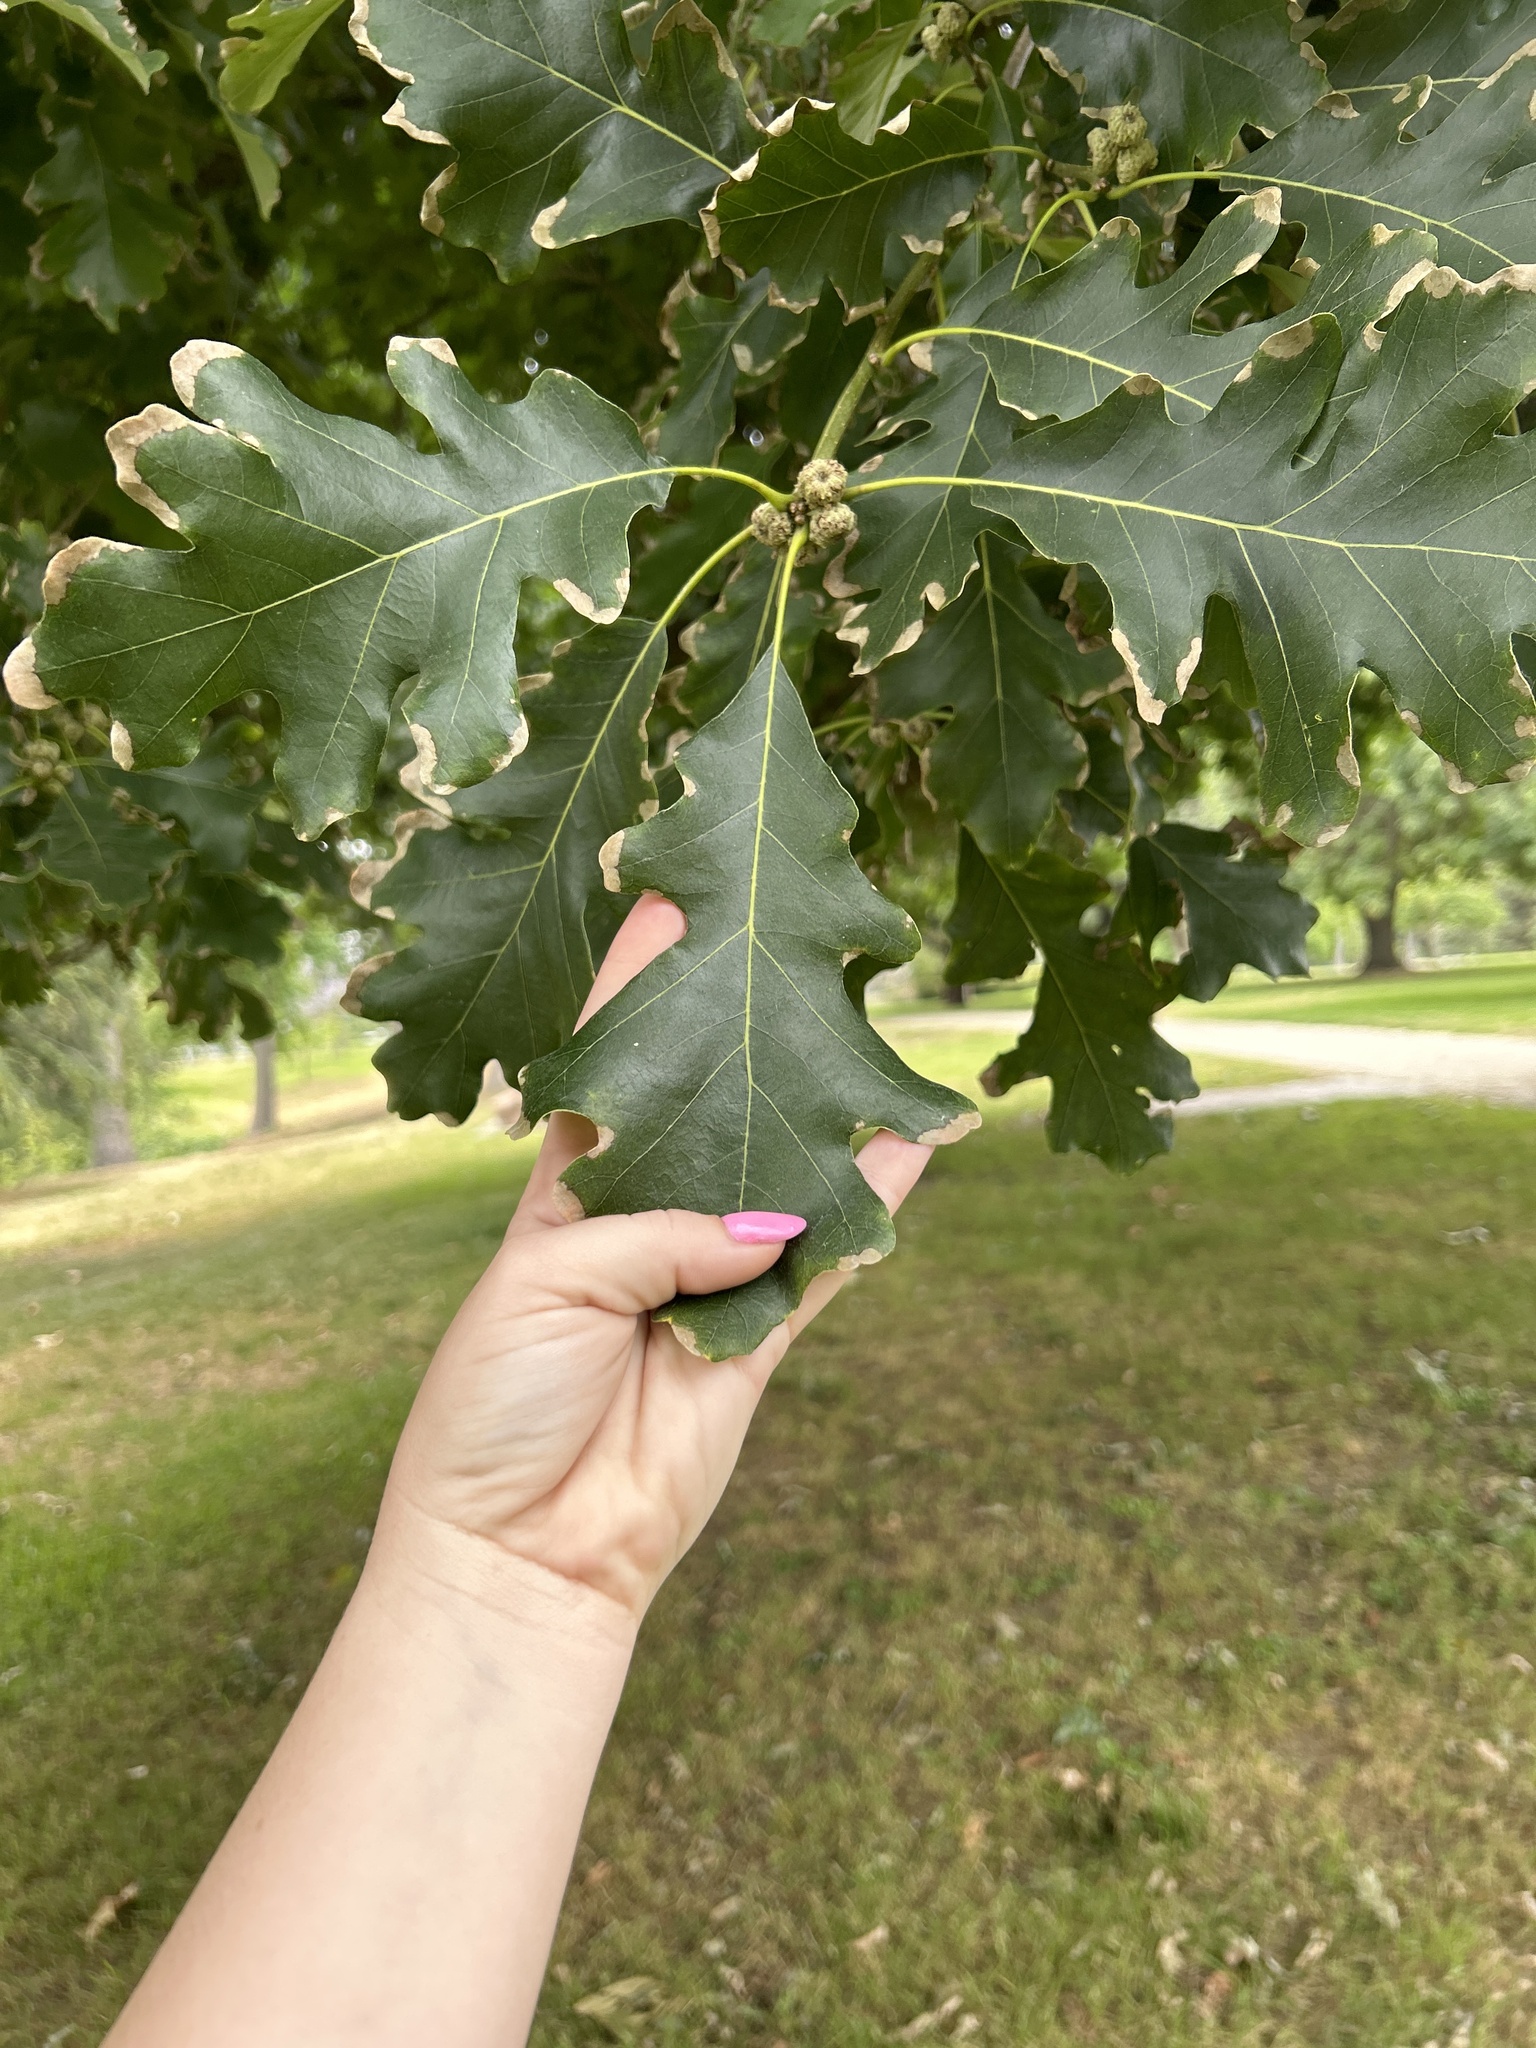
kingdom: Plantae
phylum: Tracheophyta
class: Magnoliopsida
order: Fagales
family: Fagaceae
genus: Quercus
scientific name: Quercus lobata
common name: Valley oak
